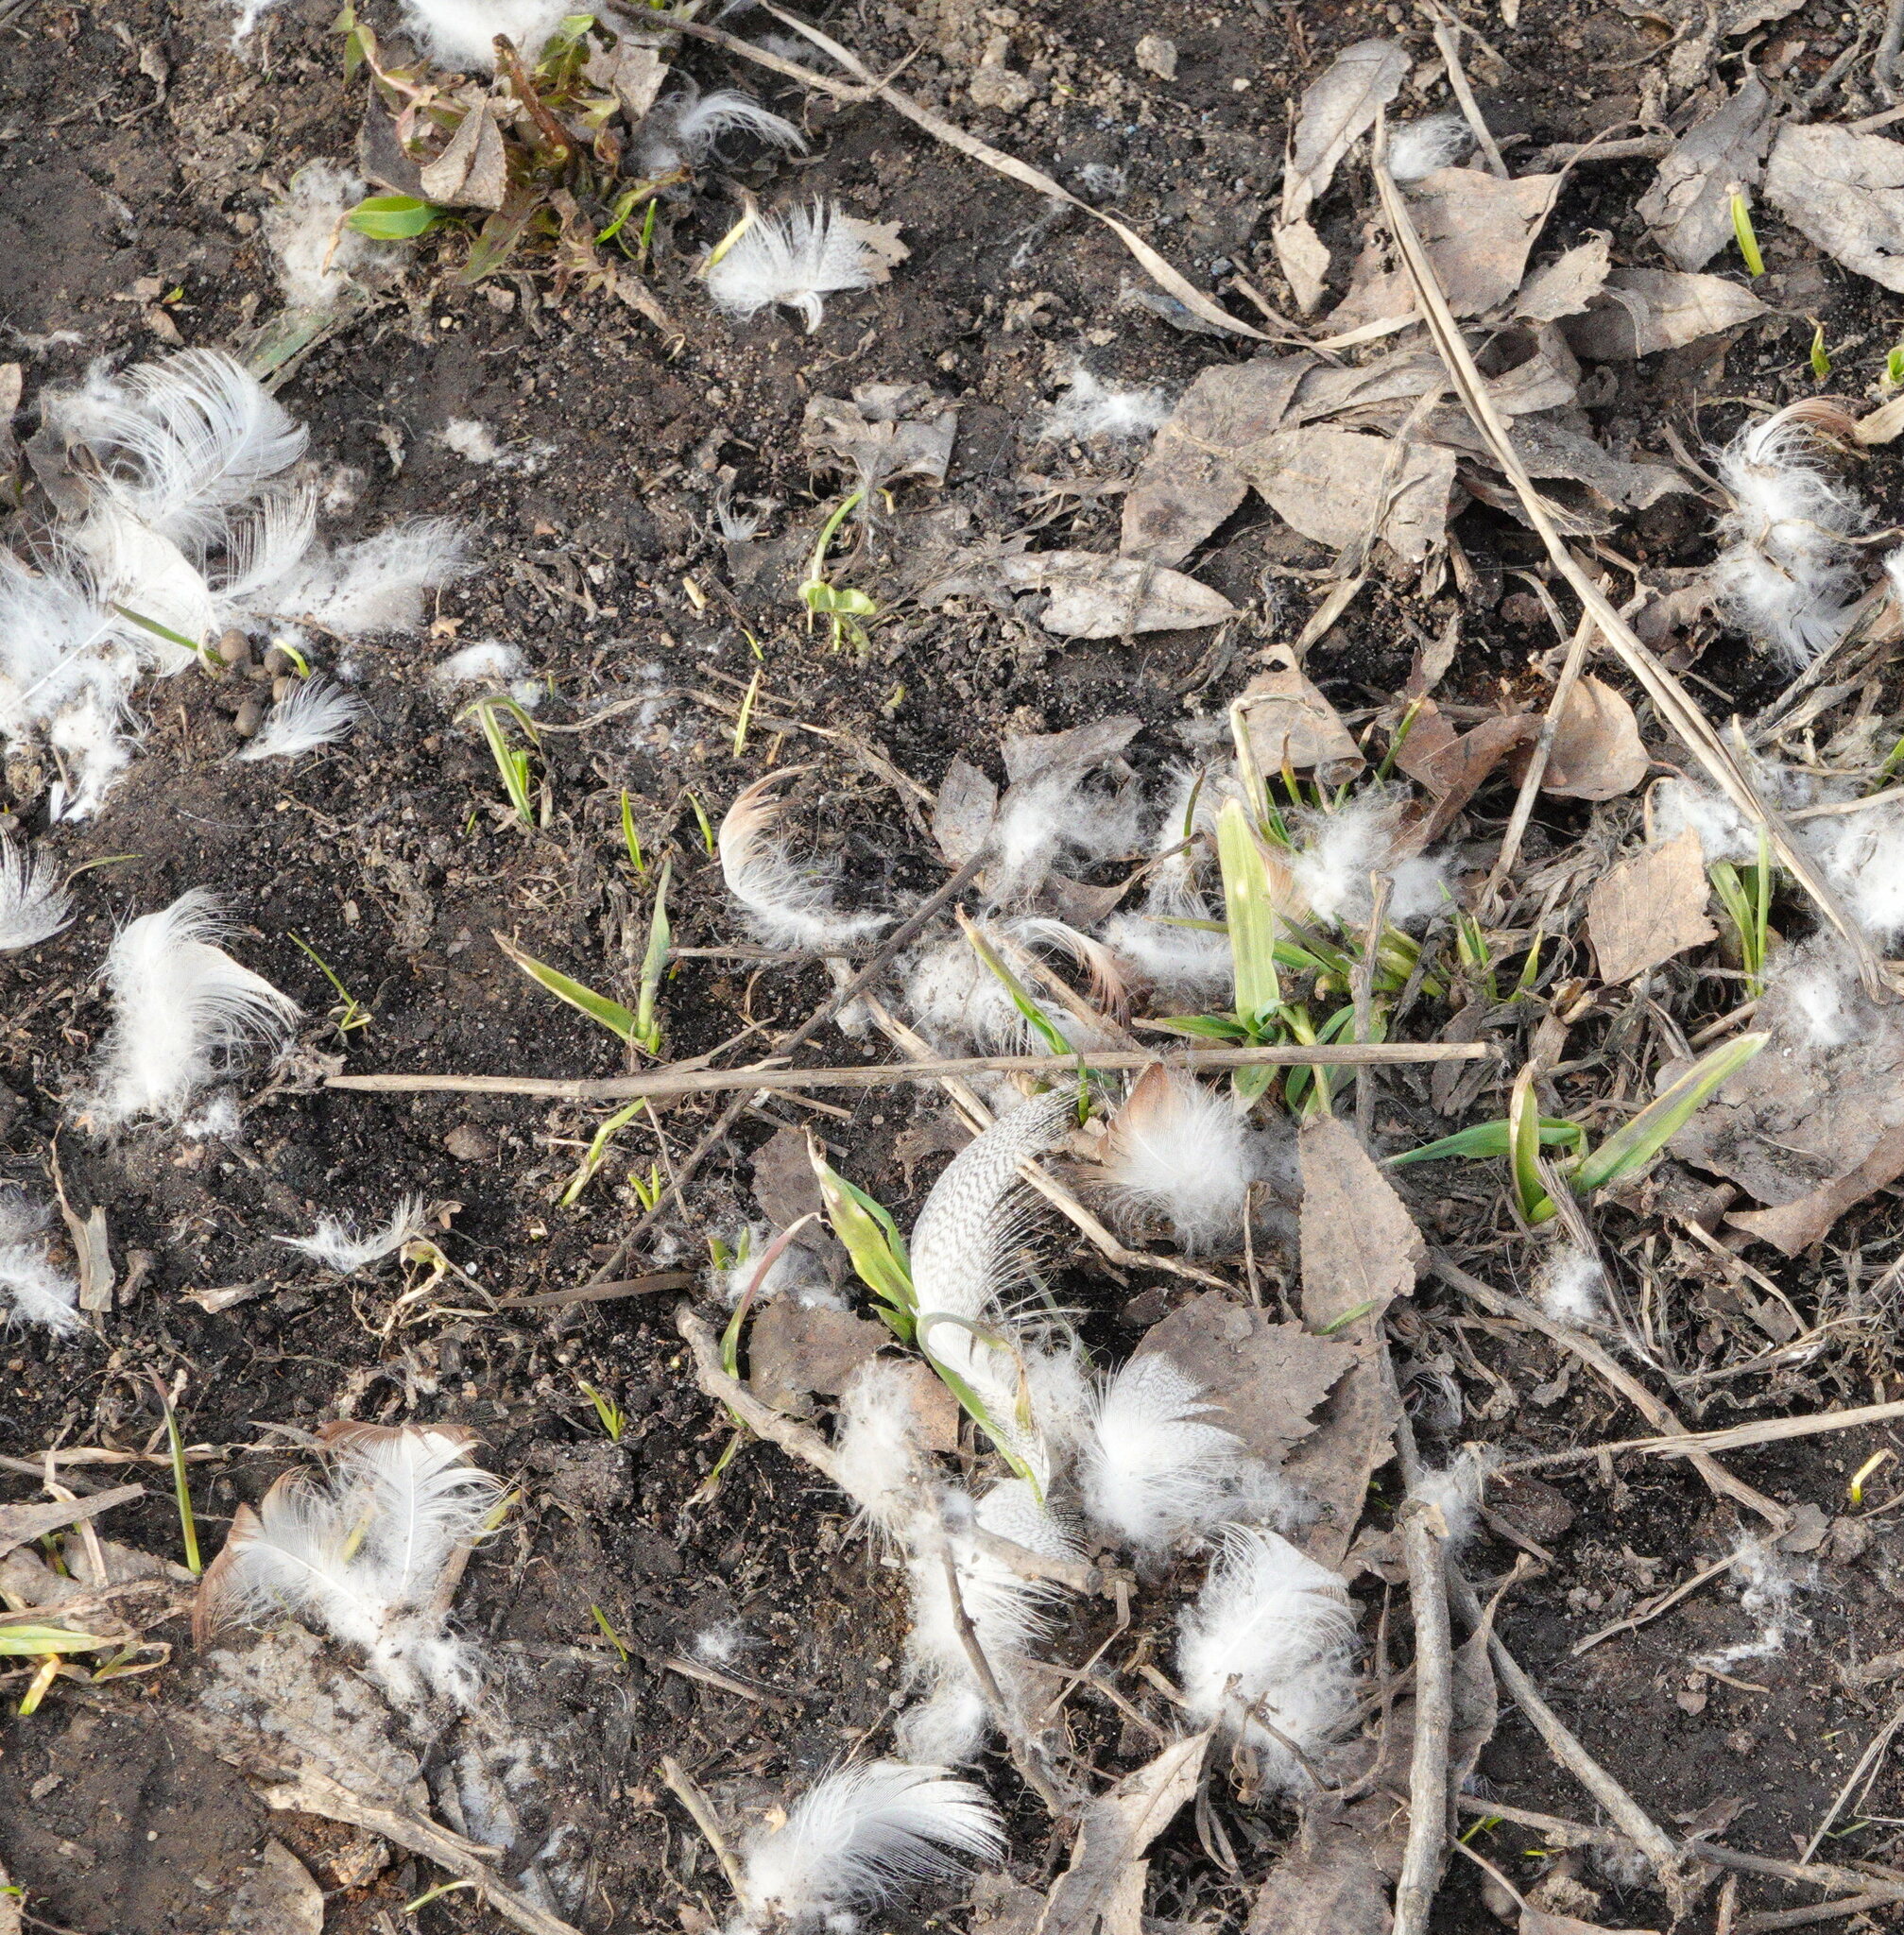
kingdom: Animalia
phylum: Chordata
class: Aves
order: Anseriformes
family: Anatidae
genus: Anas
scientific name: Anas platyrhynchos
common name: Mallard
